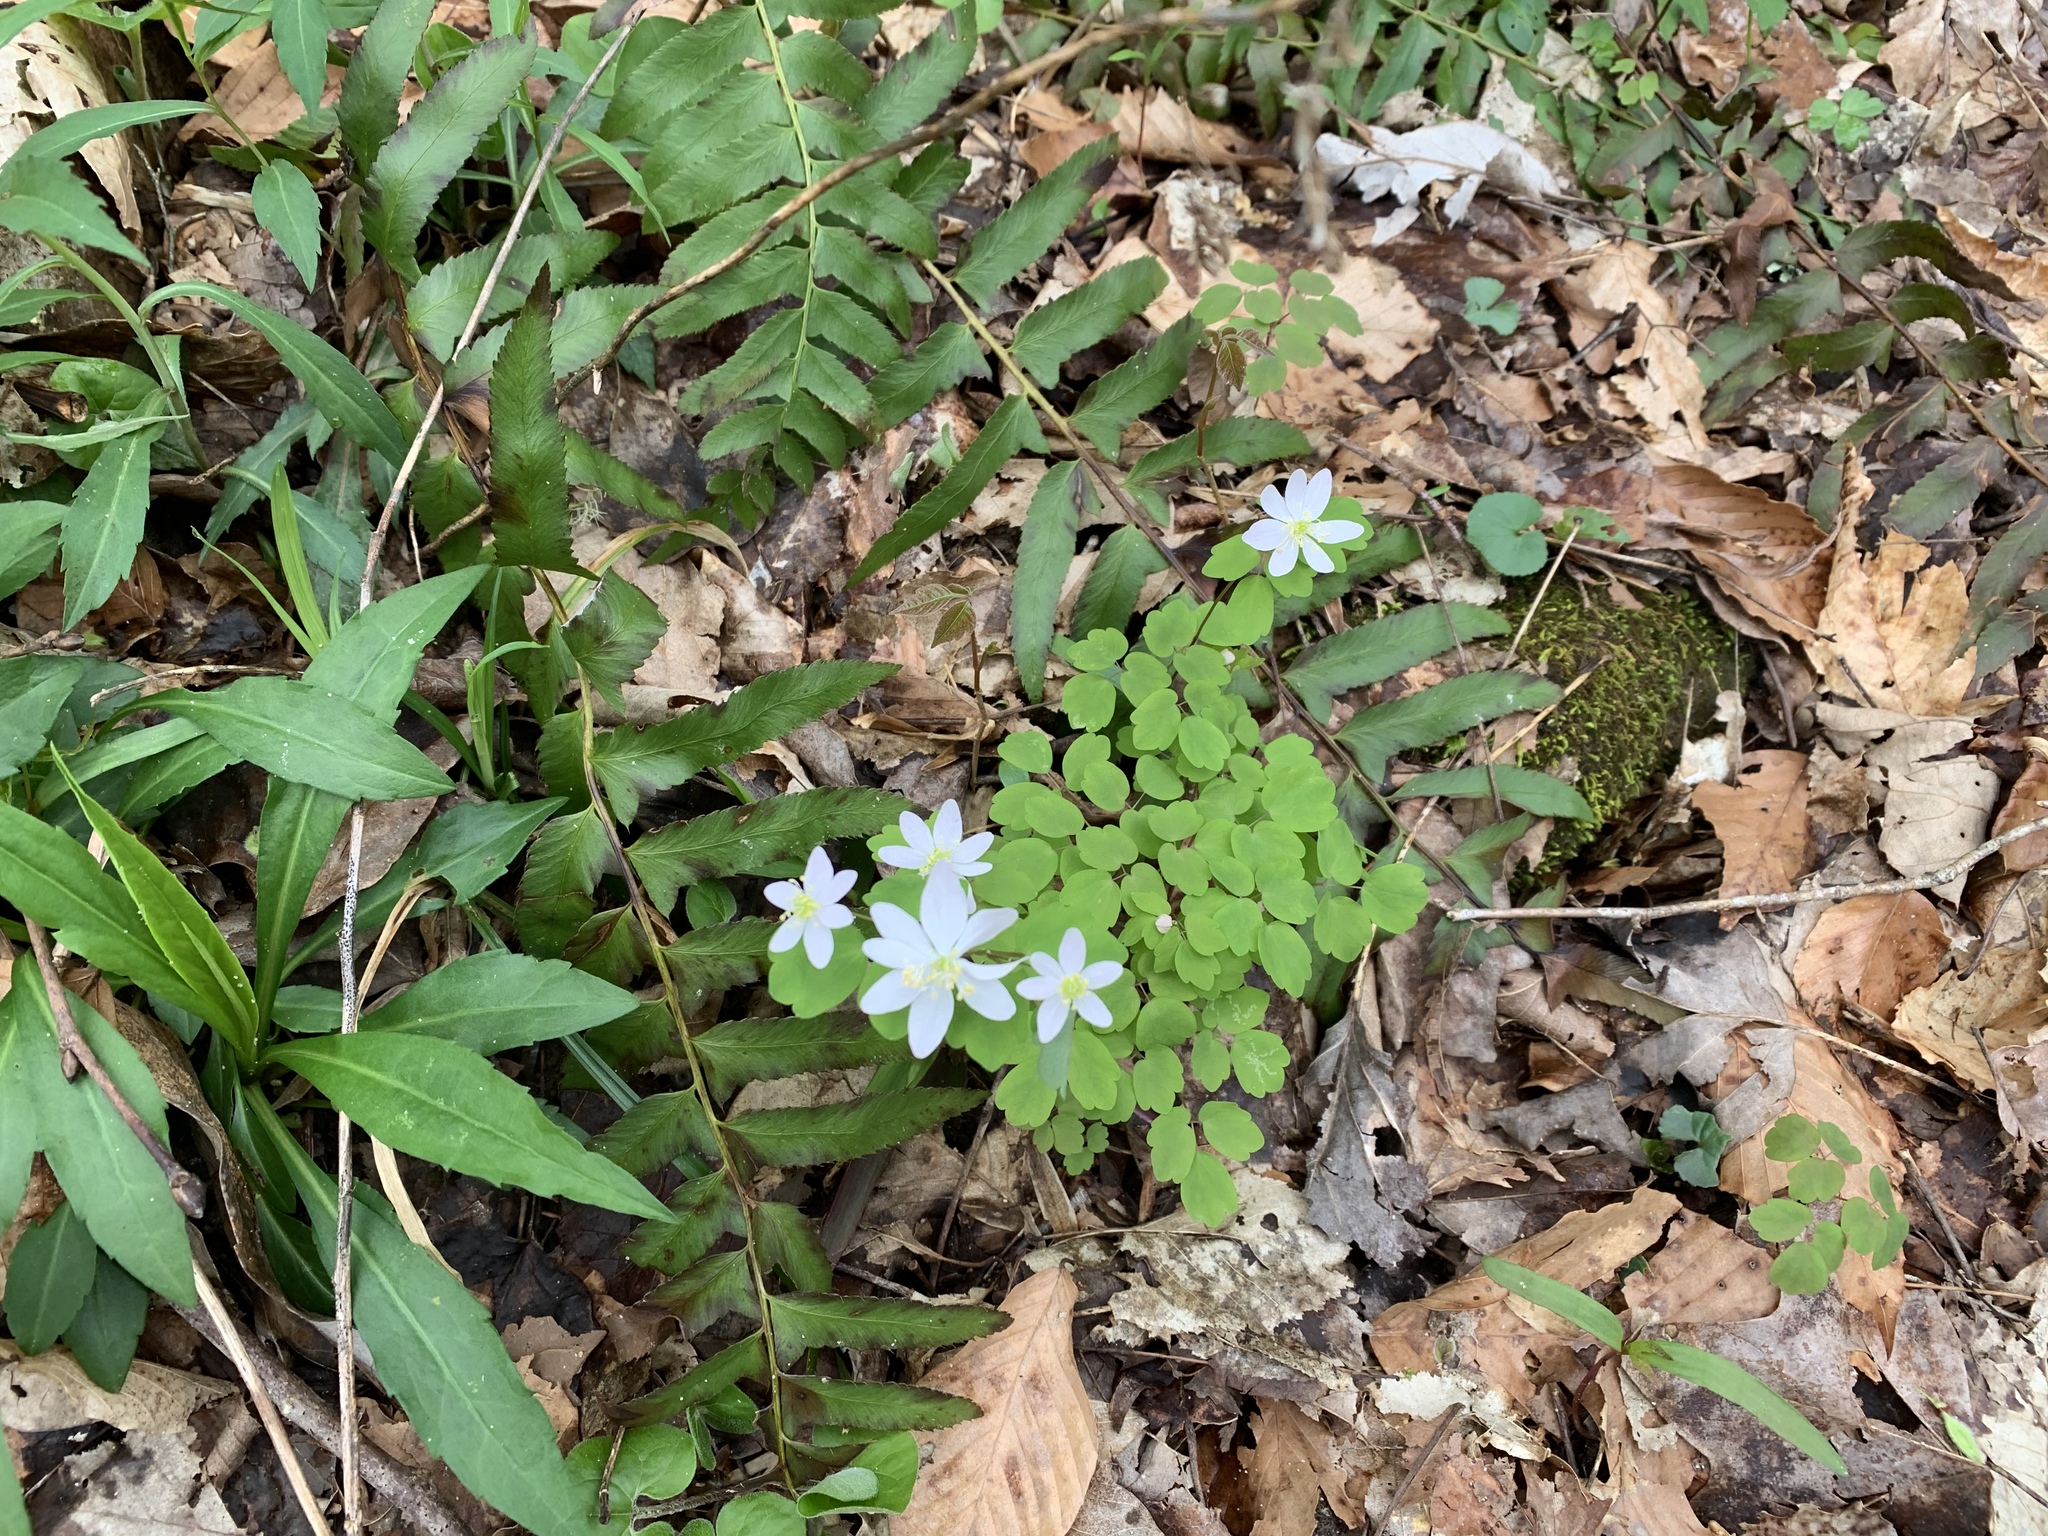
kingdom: Plantae
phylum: Tracheophyta
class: Magnoliopsida
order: Ranunculales
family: Ranunculaceae
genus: Thalictrum
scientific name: Thalictrum thalictroides
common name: Rue-anemone
